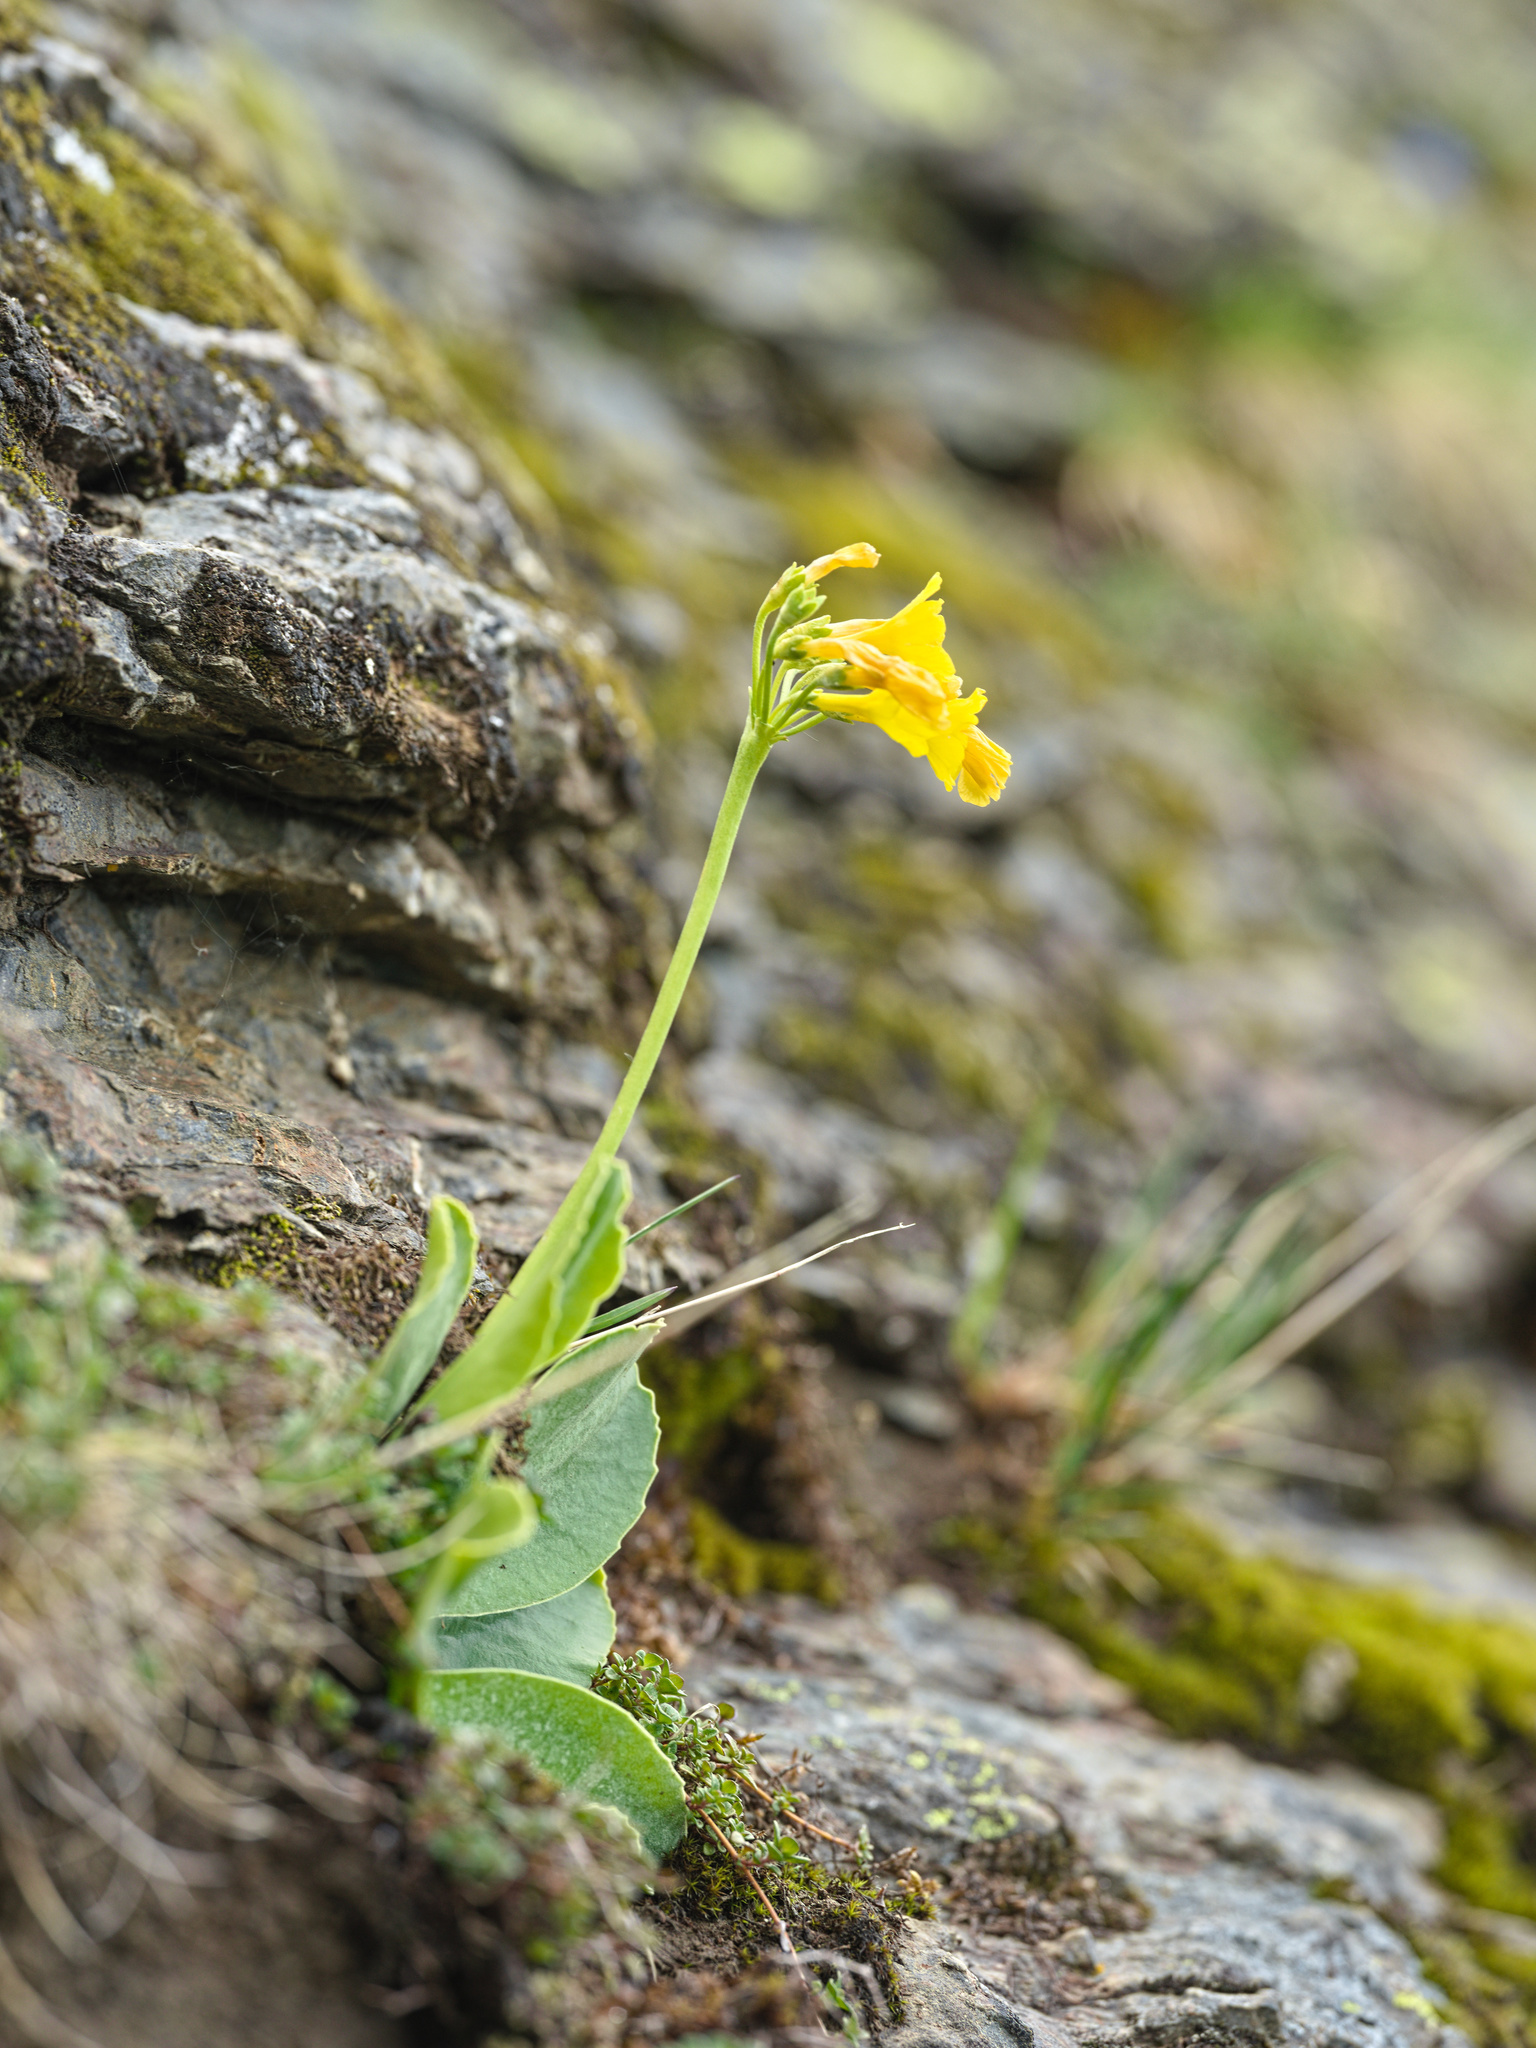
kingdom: Plantae
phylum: Tracheophyta
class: Magnoliopsida
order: Ericales
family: Primulaceae
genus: Primula
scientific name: Primula auricula
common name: Auricula
